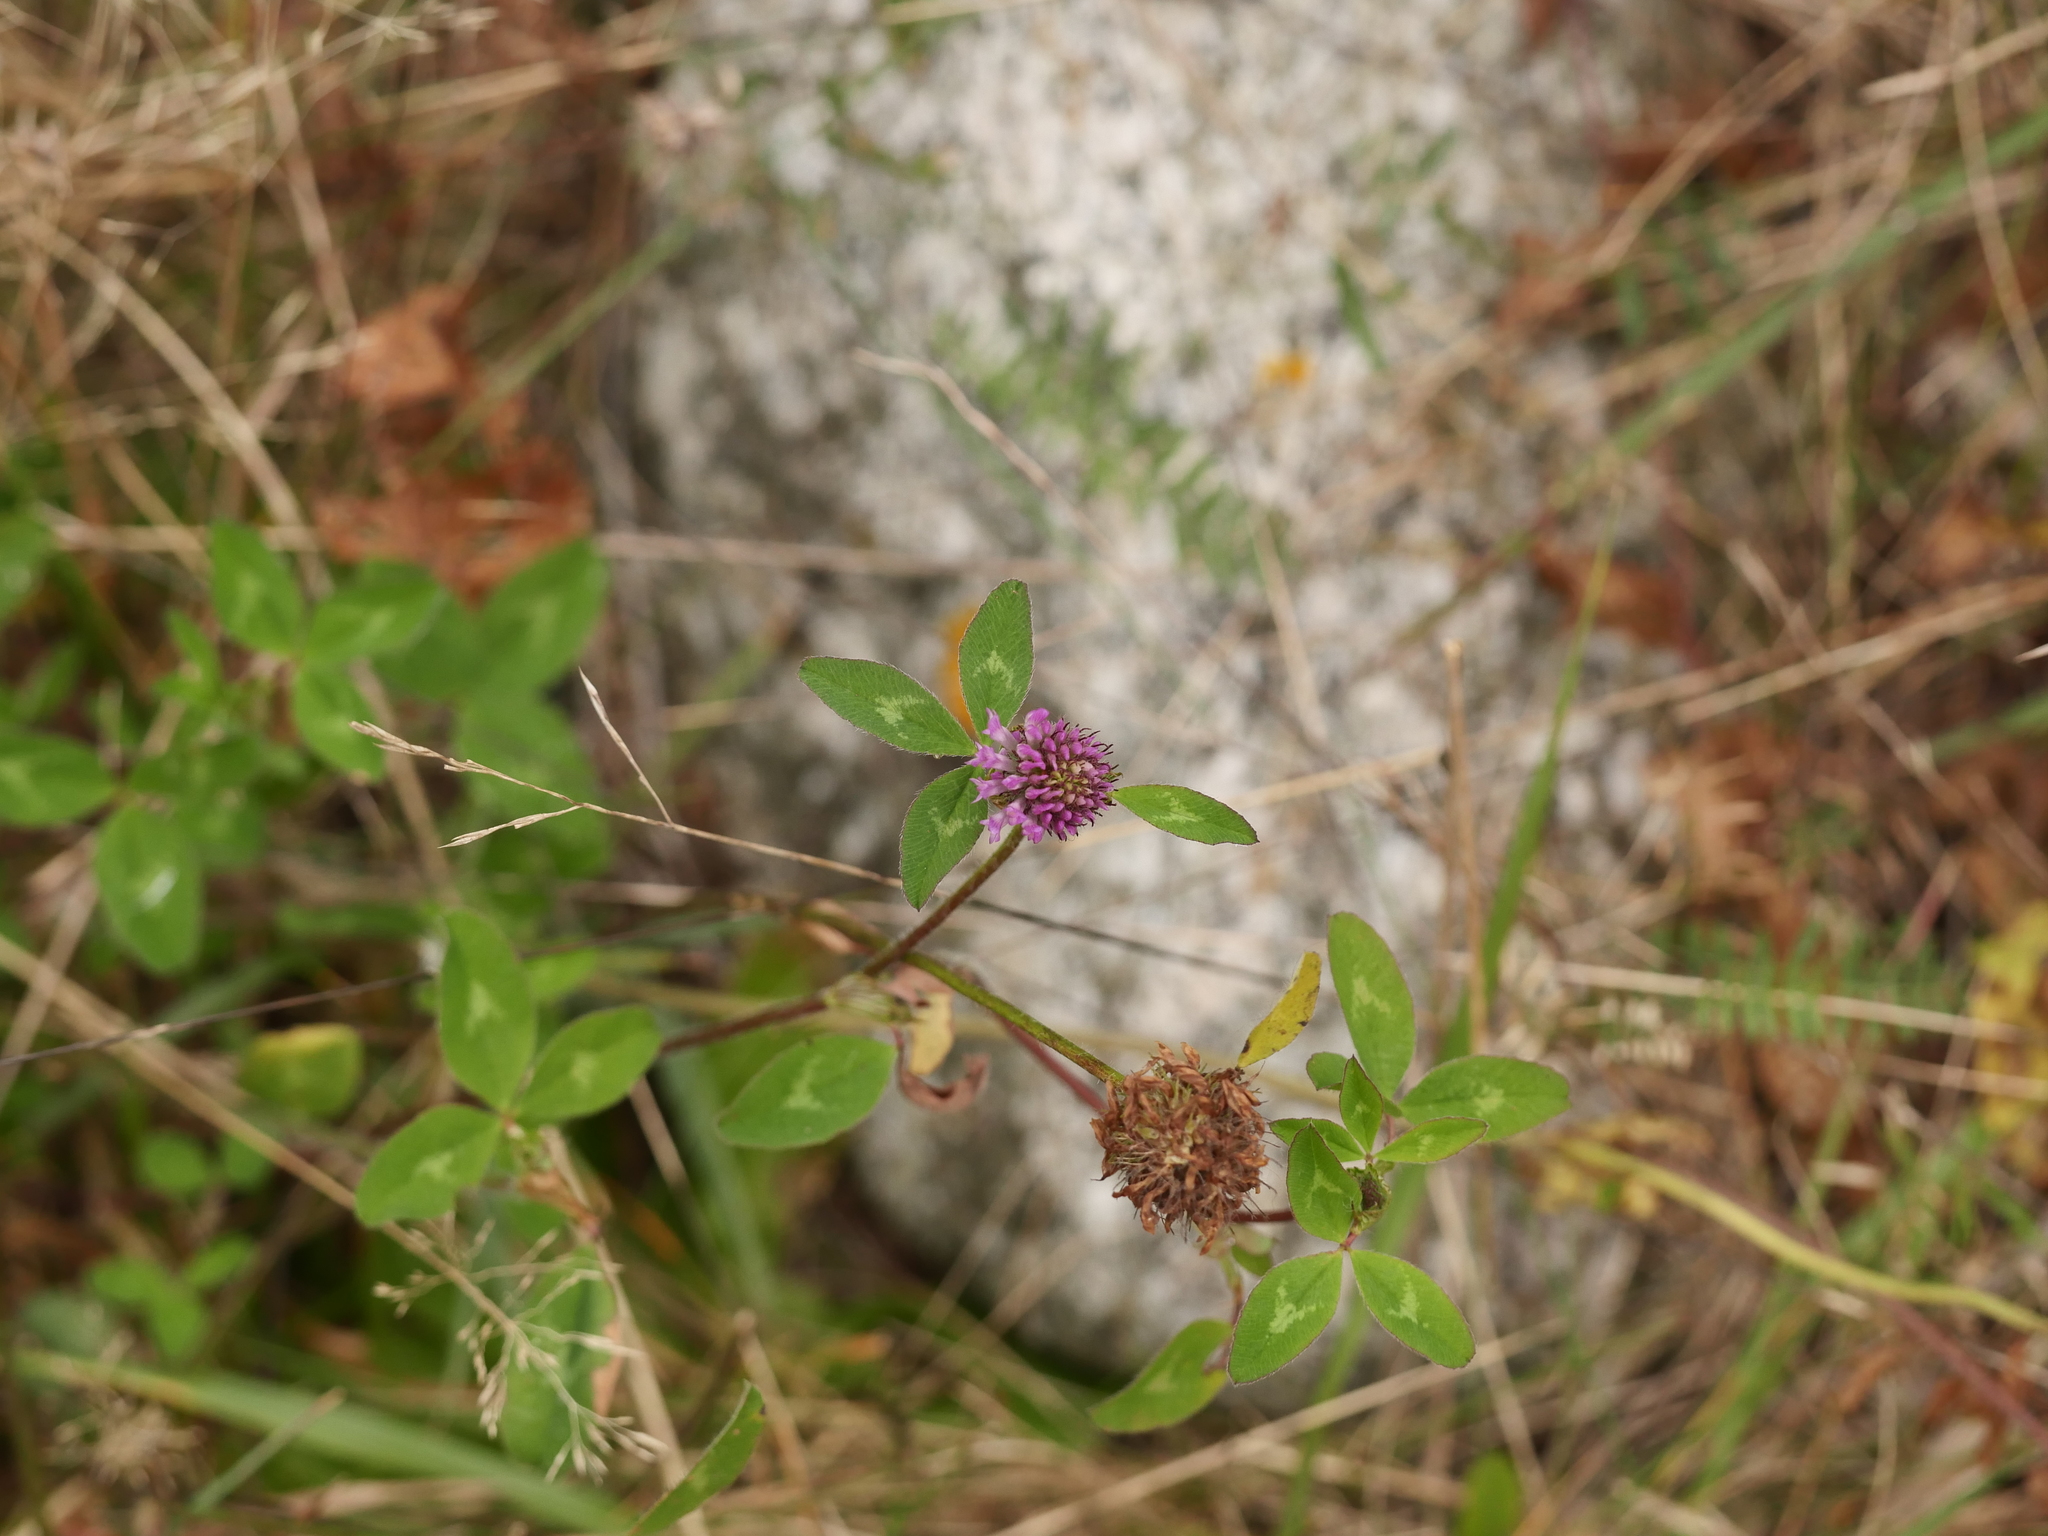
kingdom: Plantae
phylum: Tracheophyta
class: Magnoliopsida
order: Fabales
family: Fabaceae
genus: Trifolium
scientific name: Trifolium pratense
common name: Red clover
